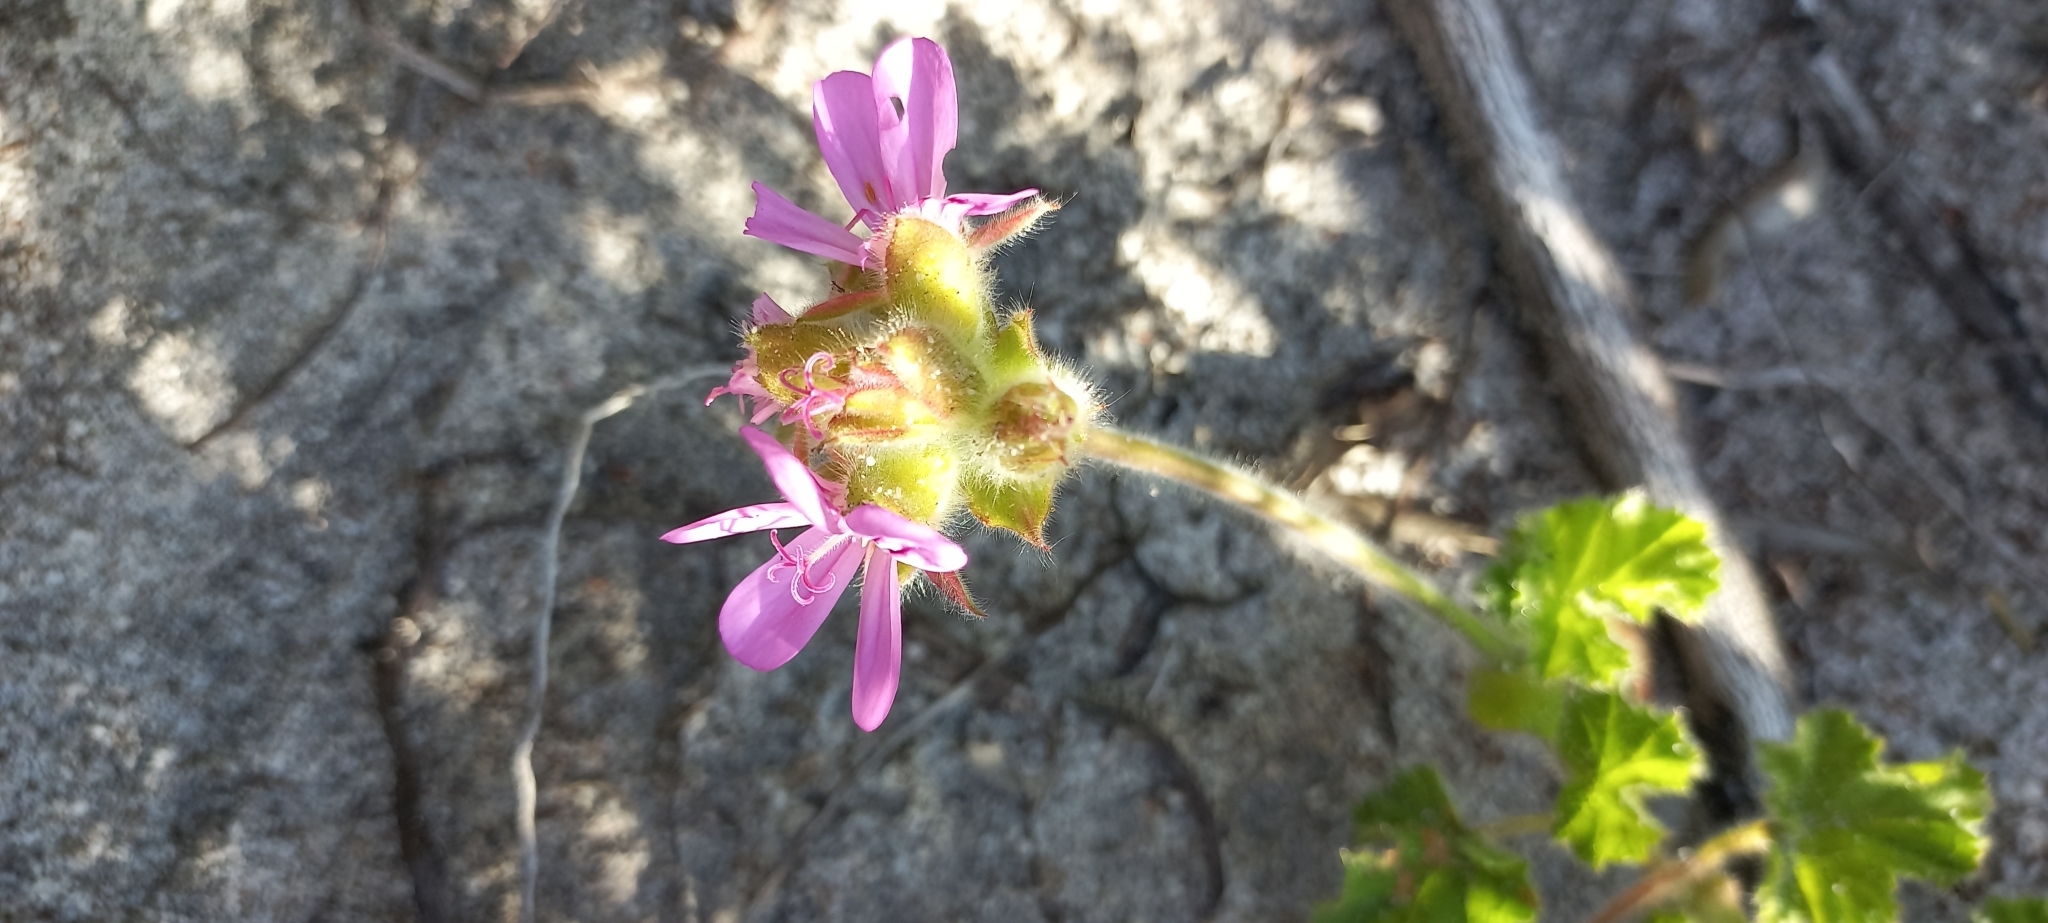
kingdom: Plantae
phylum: Tracheophyta
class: Magnoliopsida
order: Geraniales
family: Geraniaceae
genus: Pelargonium
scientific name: Pelargonium capitatum
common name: Rose scented geranium
